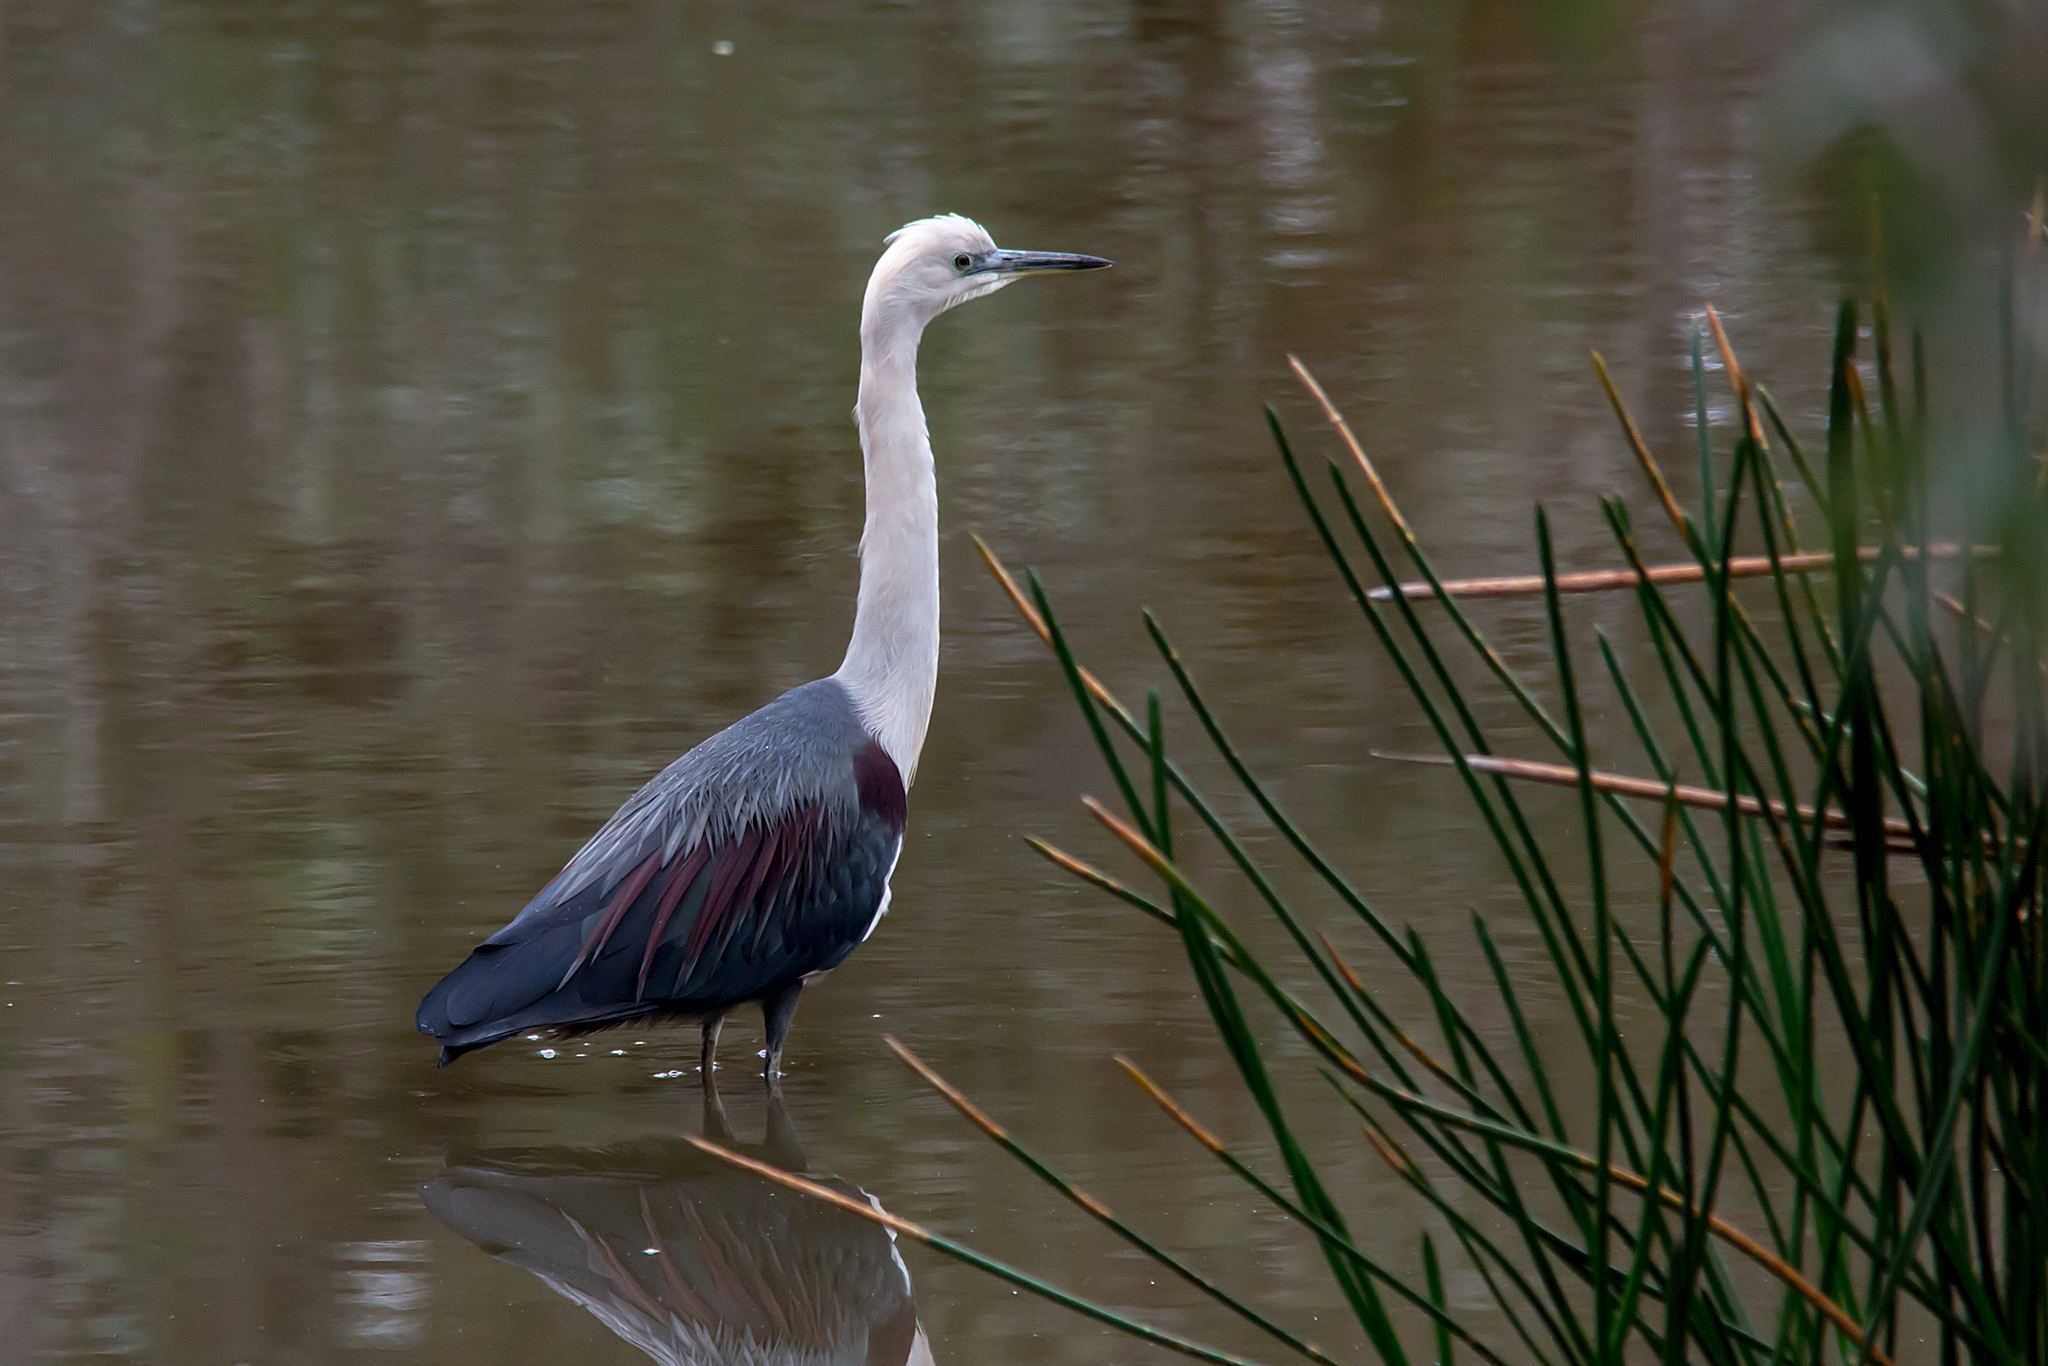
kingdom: Animalia
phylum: Chordata
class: Aves
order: Pelecaniformes
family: Ardeidae
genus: Ardea
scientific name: Ardea pacifica
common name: White-necked heron
